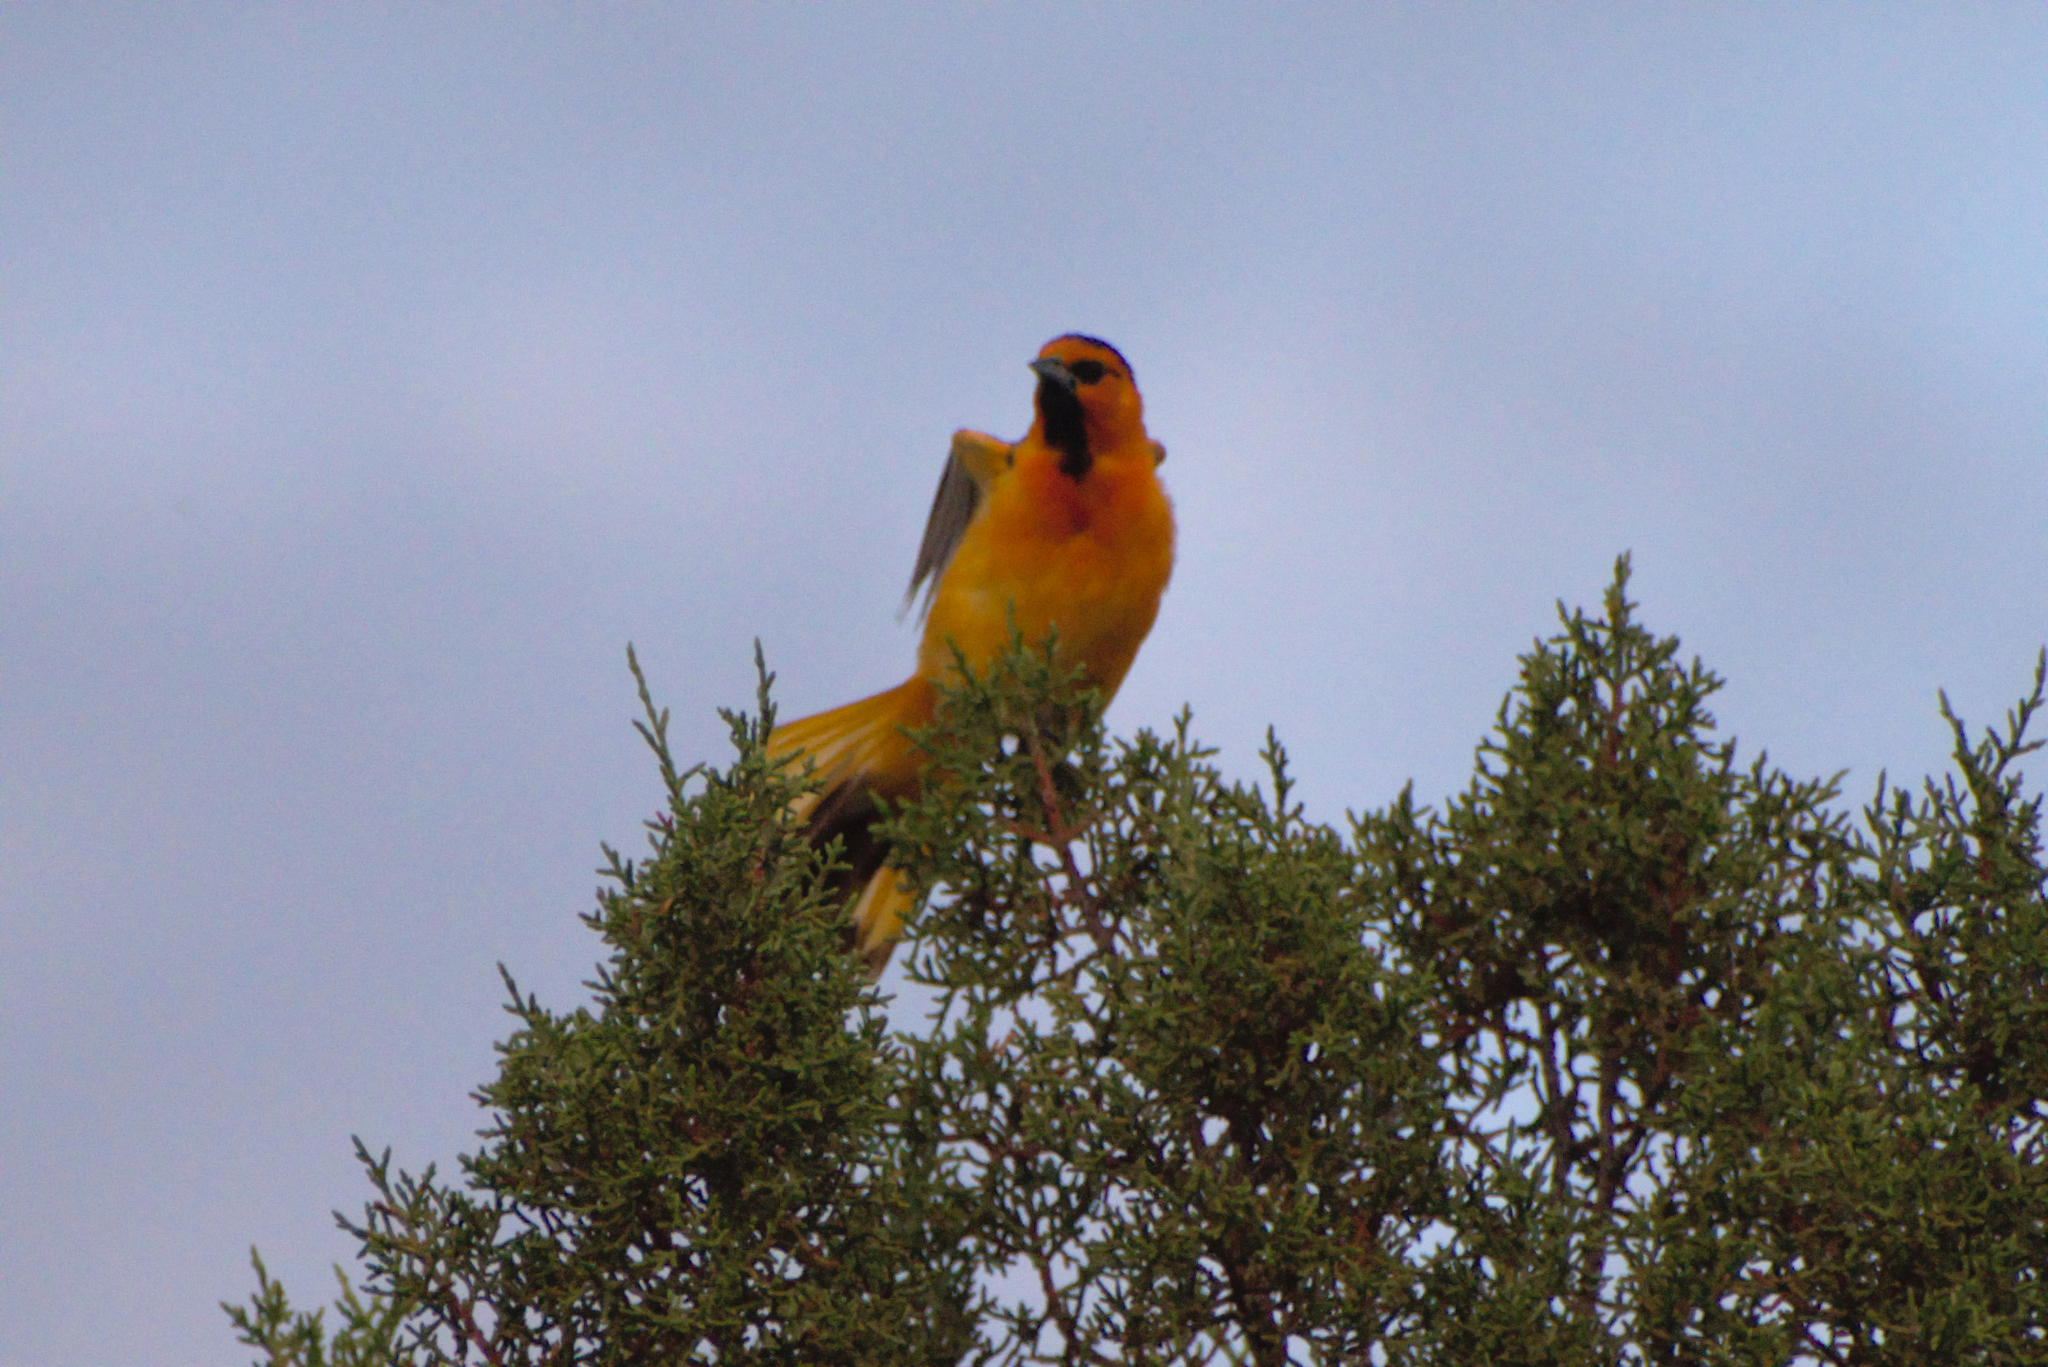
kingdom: Animalia
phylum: Chordata
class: Aves
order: Passeriformes
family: Icteridae
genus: Icterus
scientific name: Icterus bullockii
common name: Bullock's oriole
